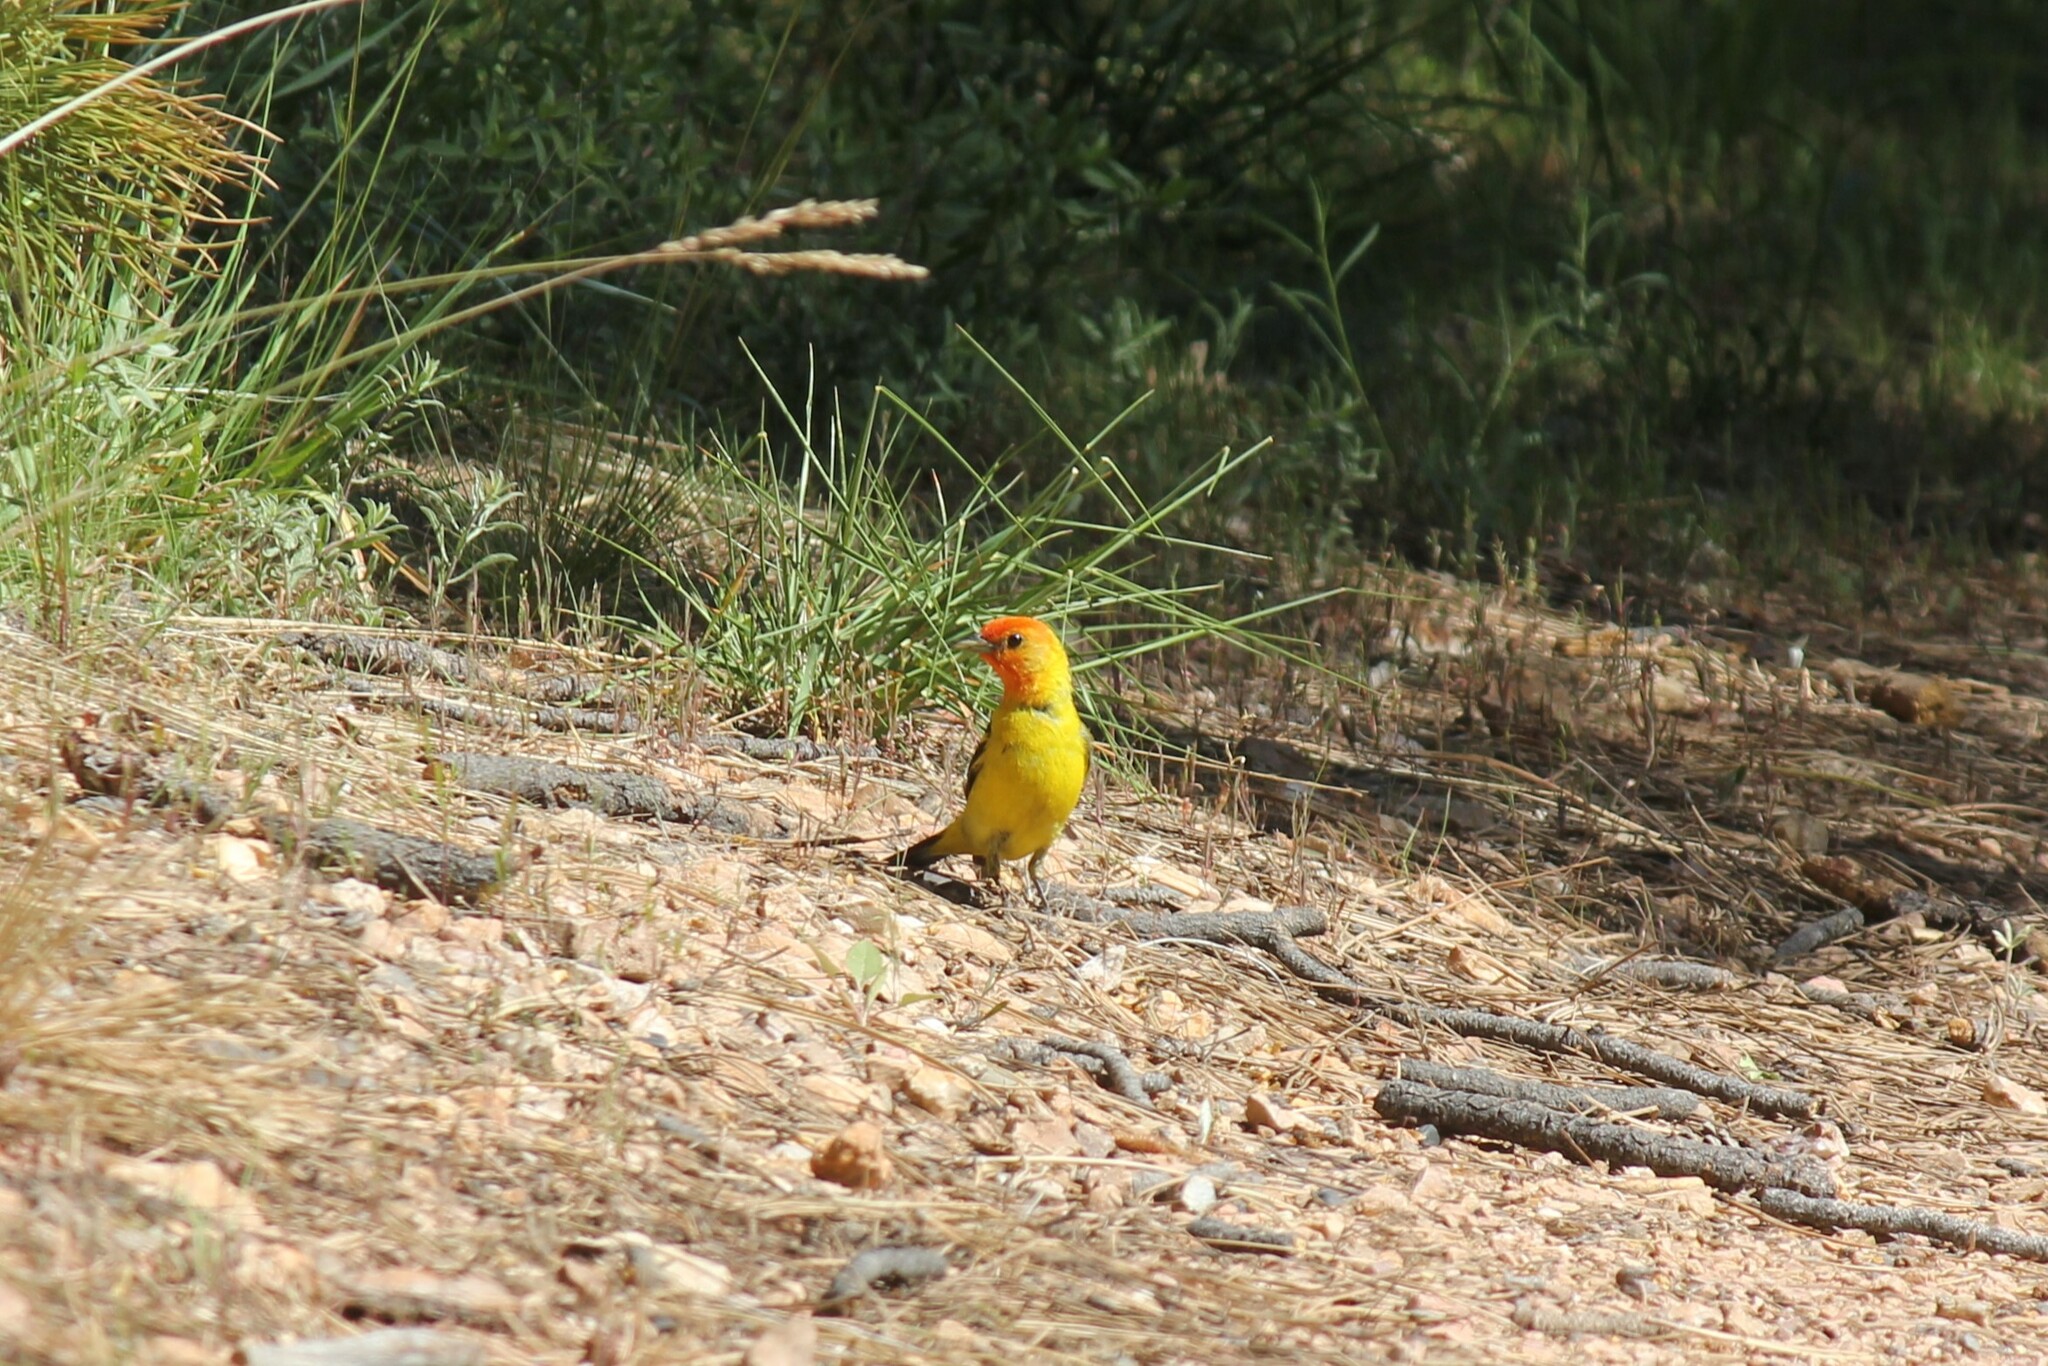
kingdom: Animalia
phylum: Chordata
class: Aves
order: Passeriformes
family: Cardinalidae
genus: Piranga
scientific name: Piranga ludoviciana
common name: Western tanager
